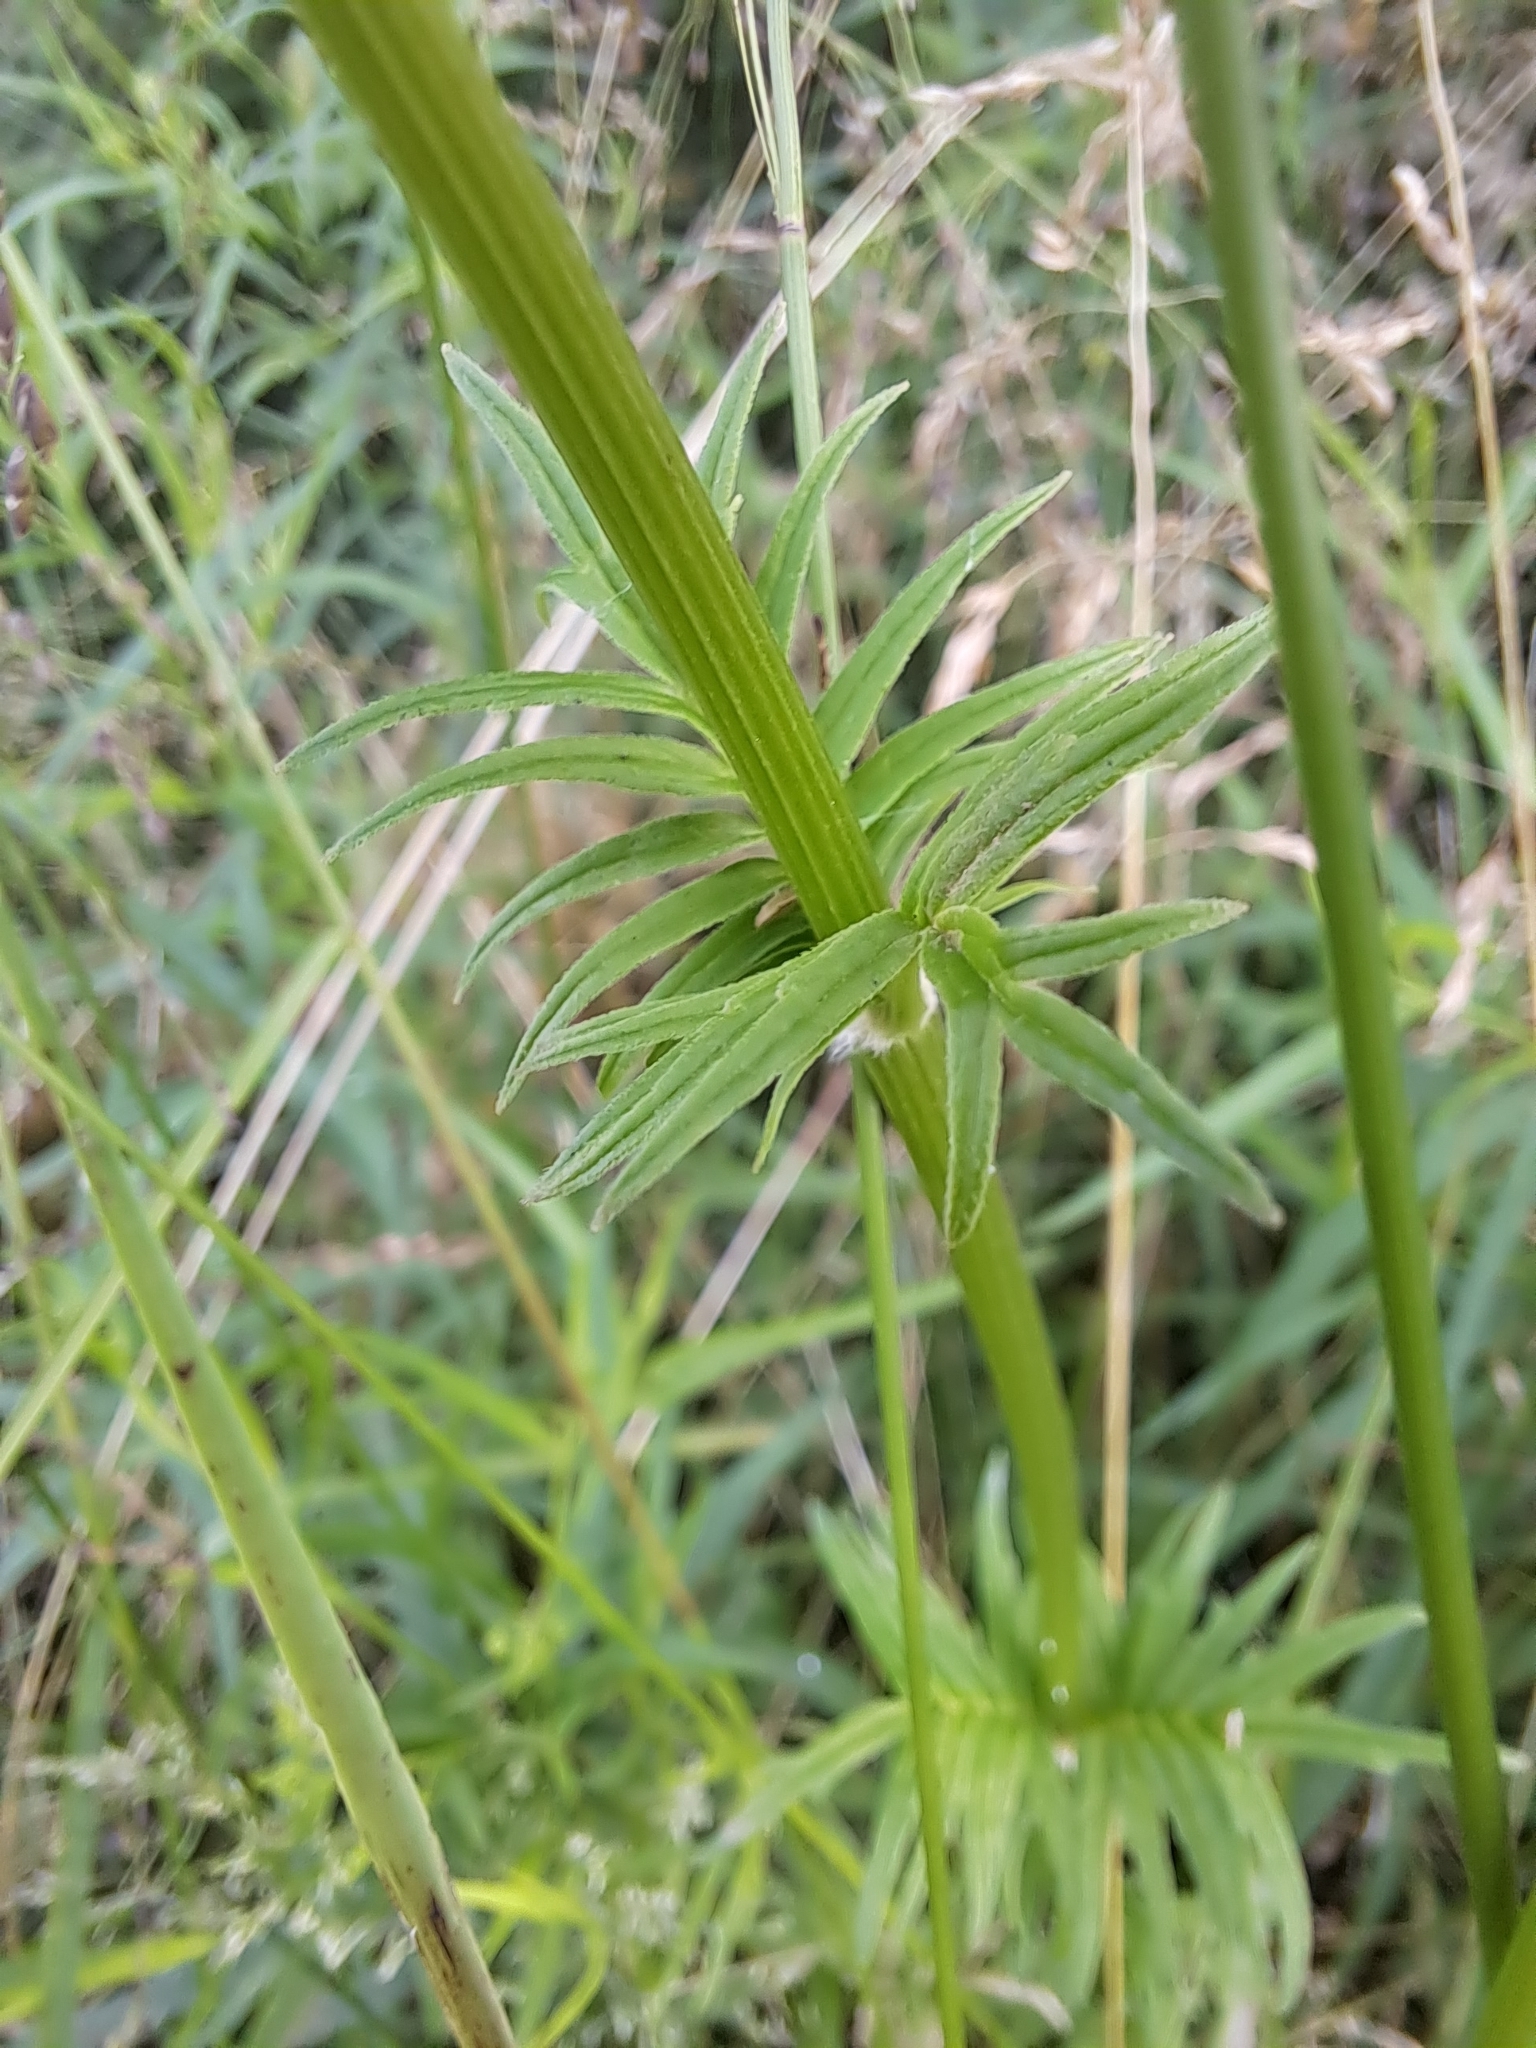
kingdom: Plantae
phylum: Tracheophyta
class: Magnoliopsida
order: Dipsacales
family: Caprifoliaceae
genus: Valeriana
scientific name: Valeriana officinalis
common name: Common valerian
